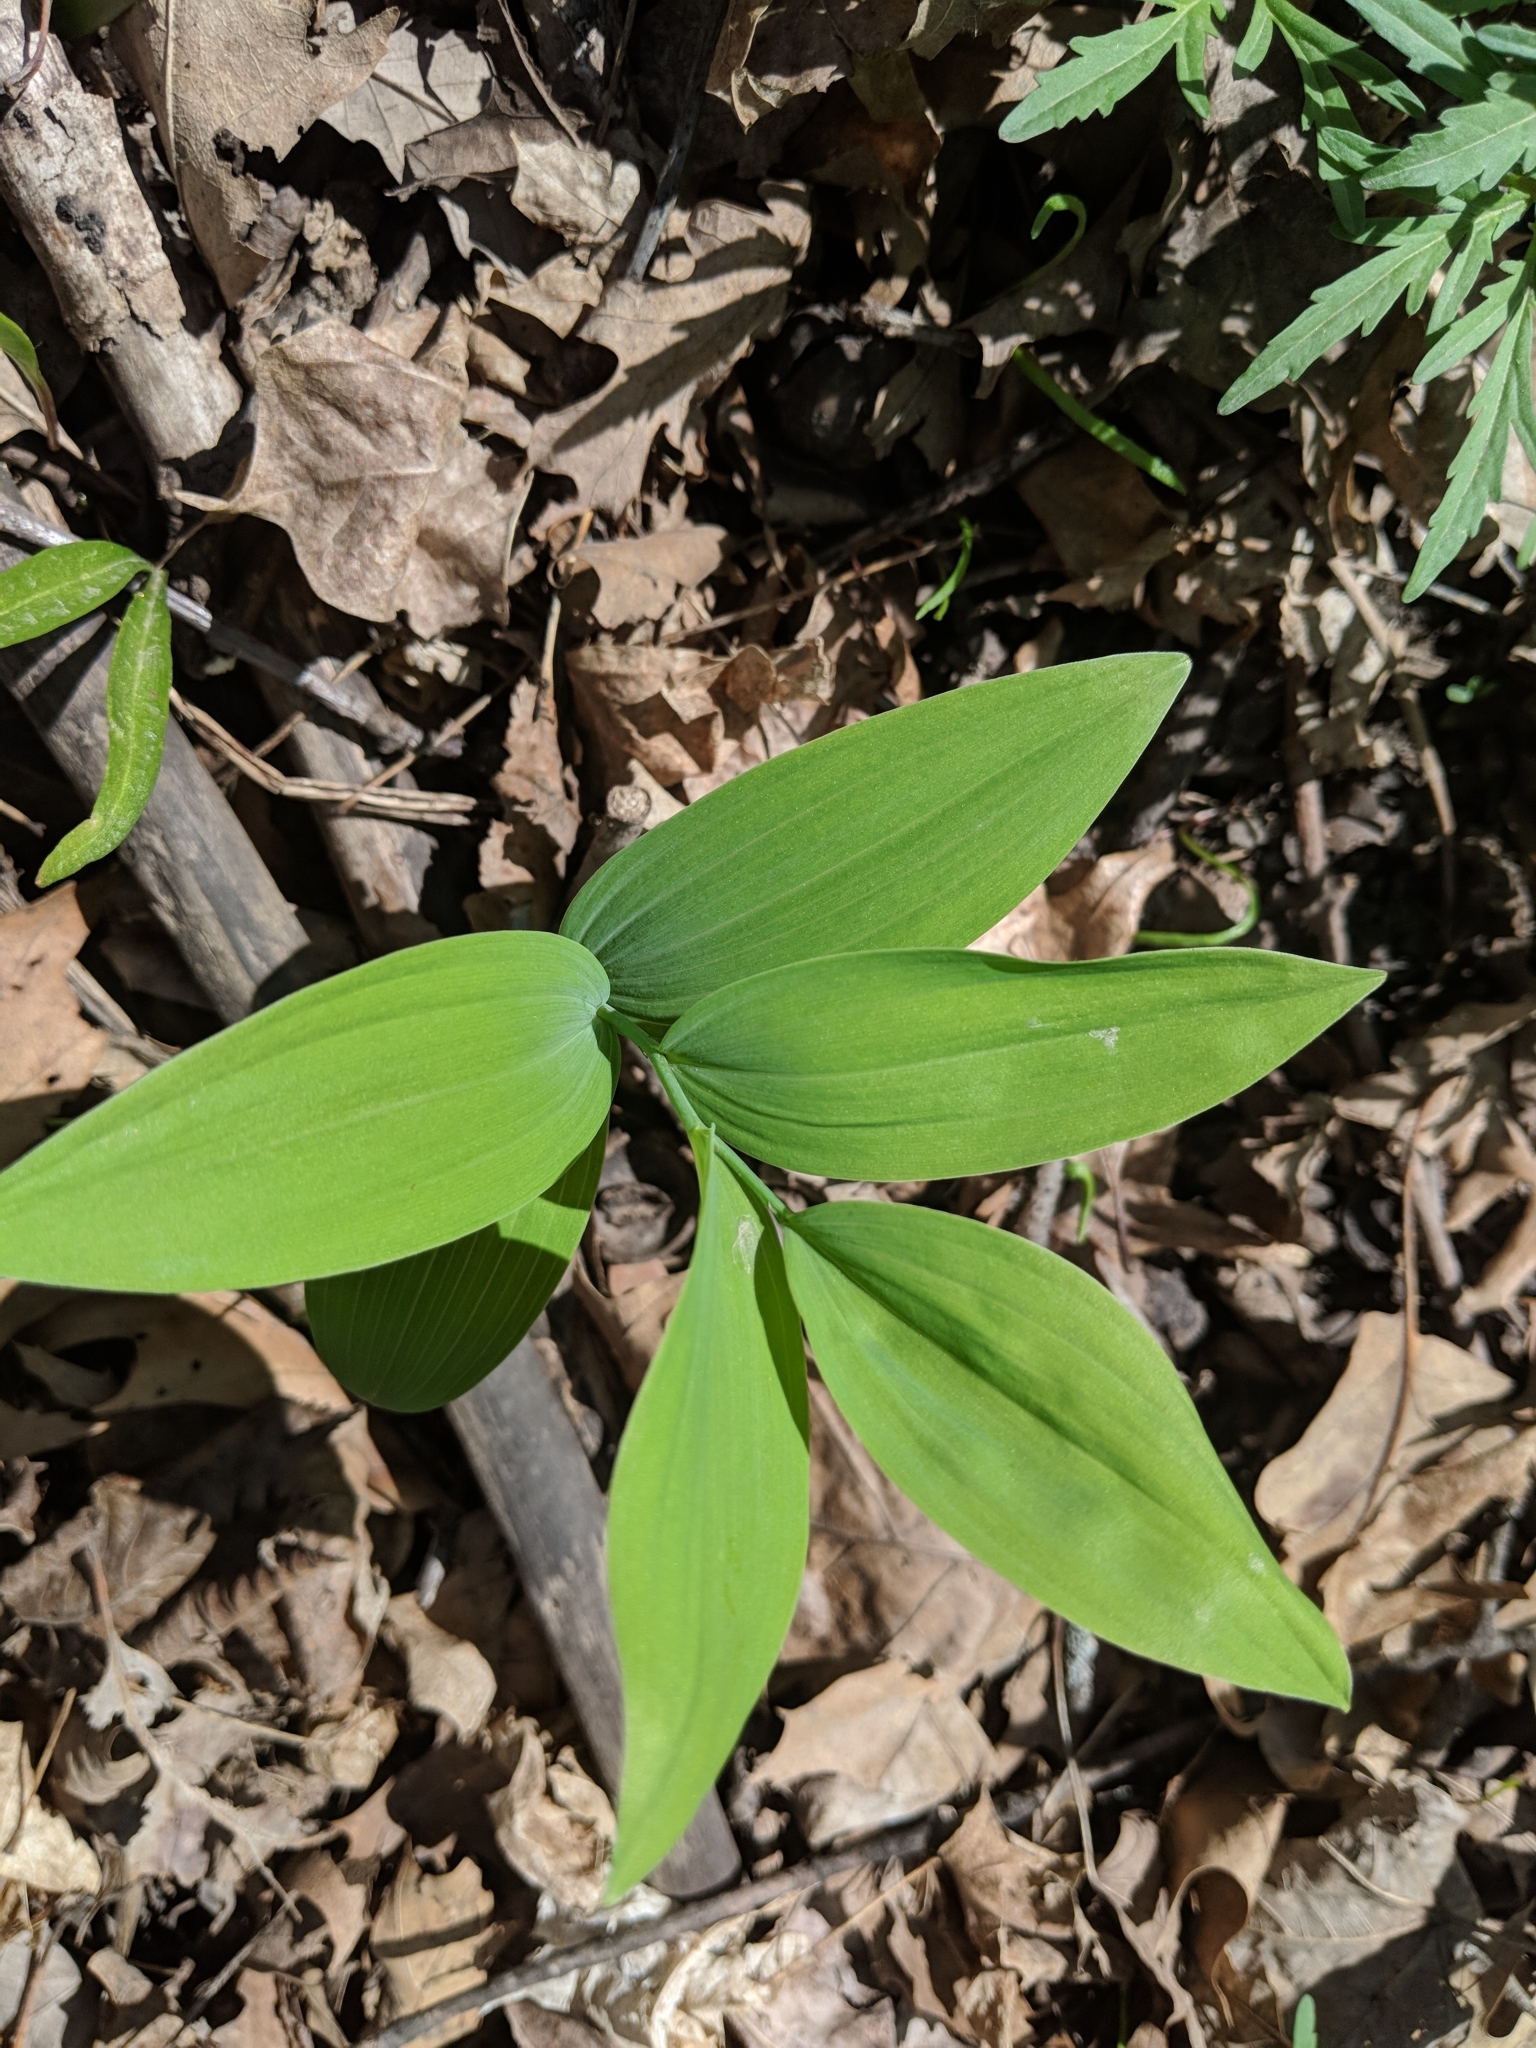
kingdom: Plantae
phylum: Tracheophyta
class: Liliopsida
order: Asparagales
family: Asparagaceae
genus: Polygonatum
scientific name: Polygonatum biflorum
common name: American solomon's-seal
